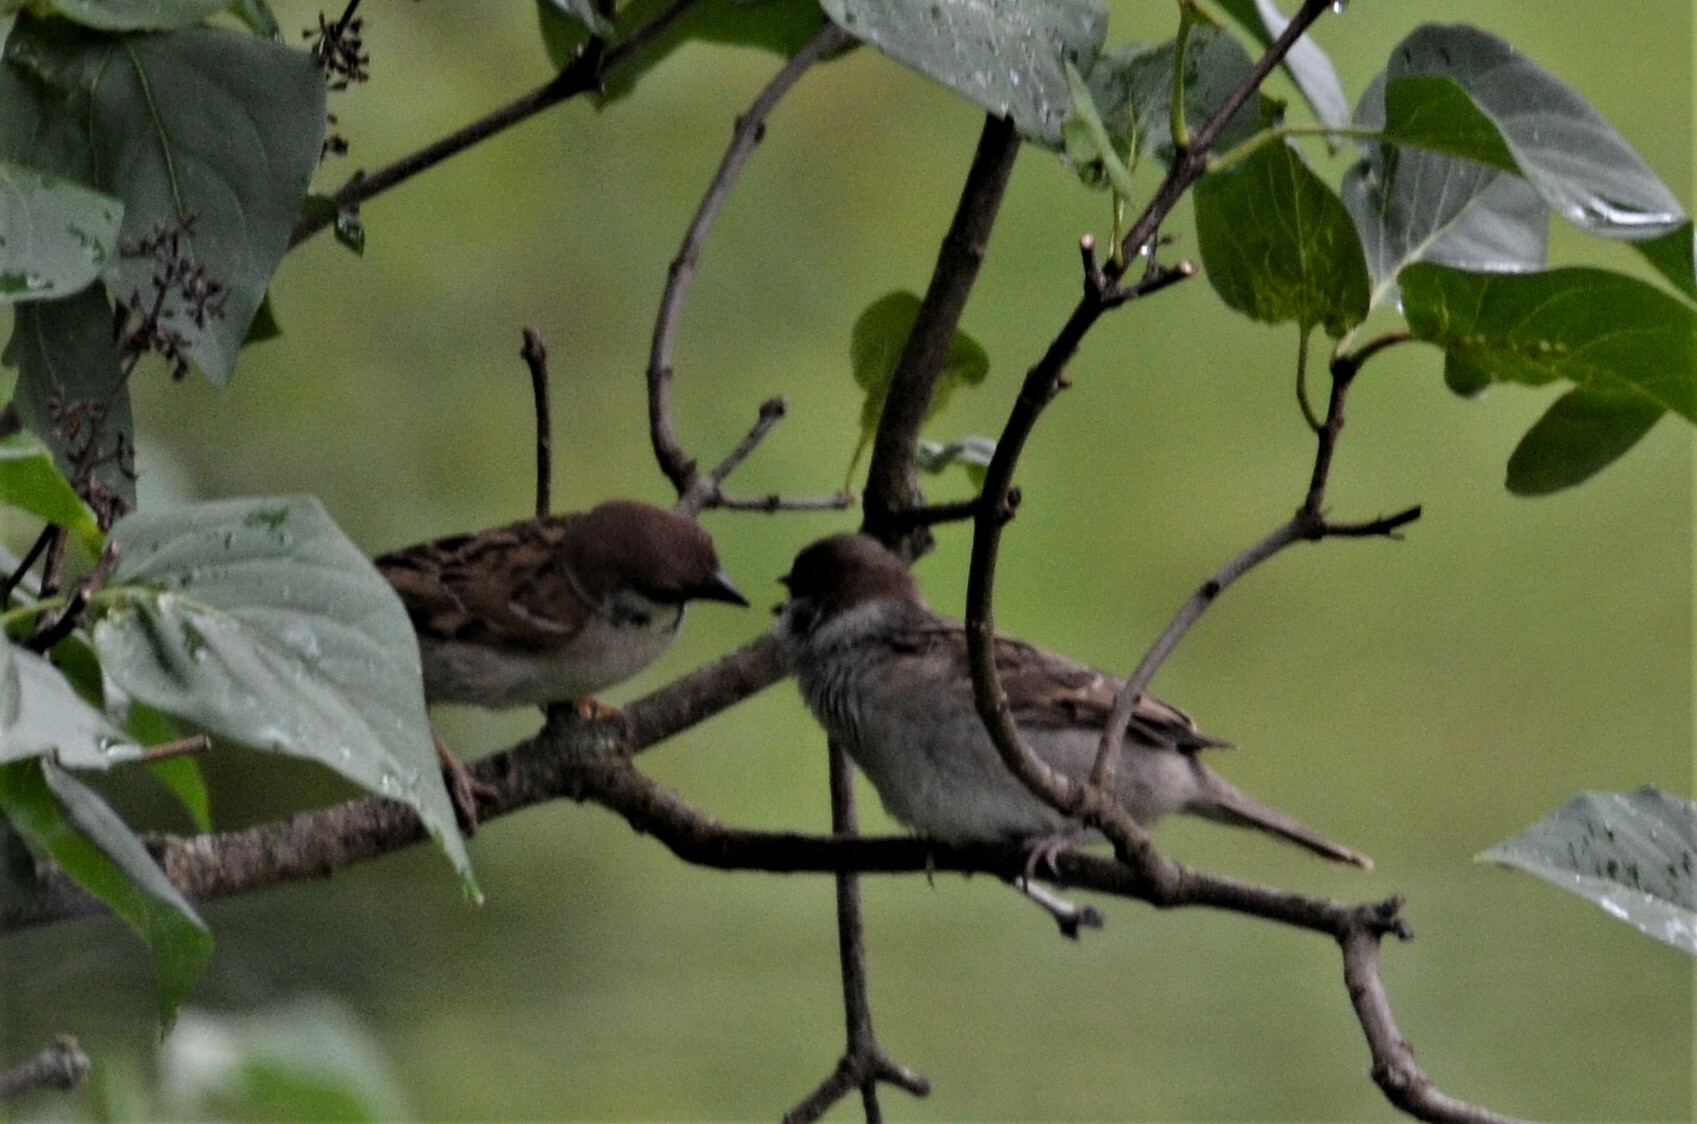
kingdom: Animalia
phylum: Chordata
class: Aves
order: Passeriformes
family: Passeridae
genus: Passer
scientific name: Passer montanus
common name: Eurasian tree sparrow
